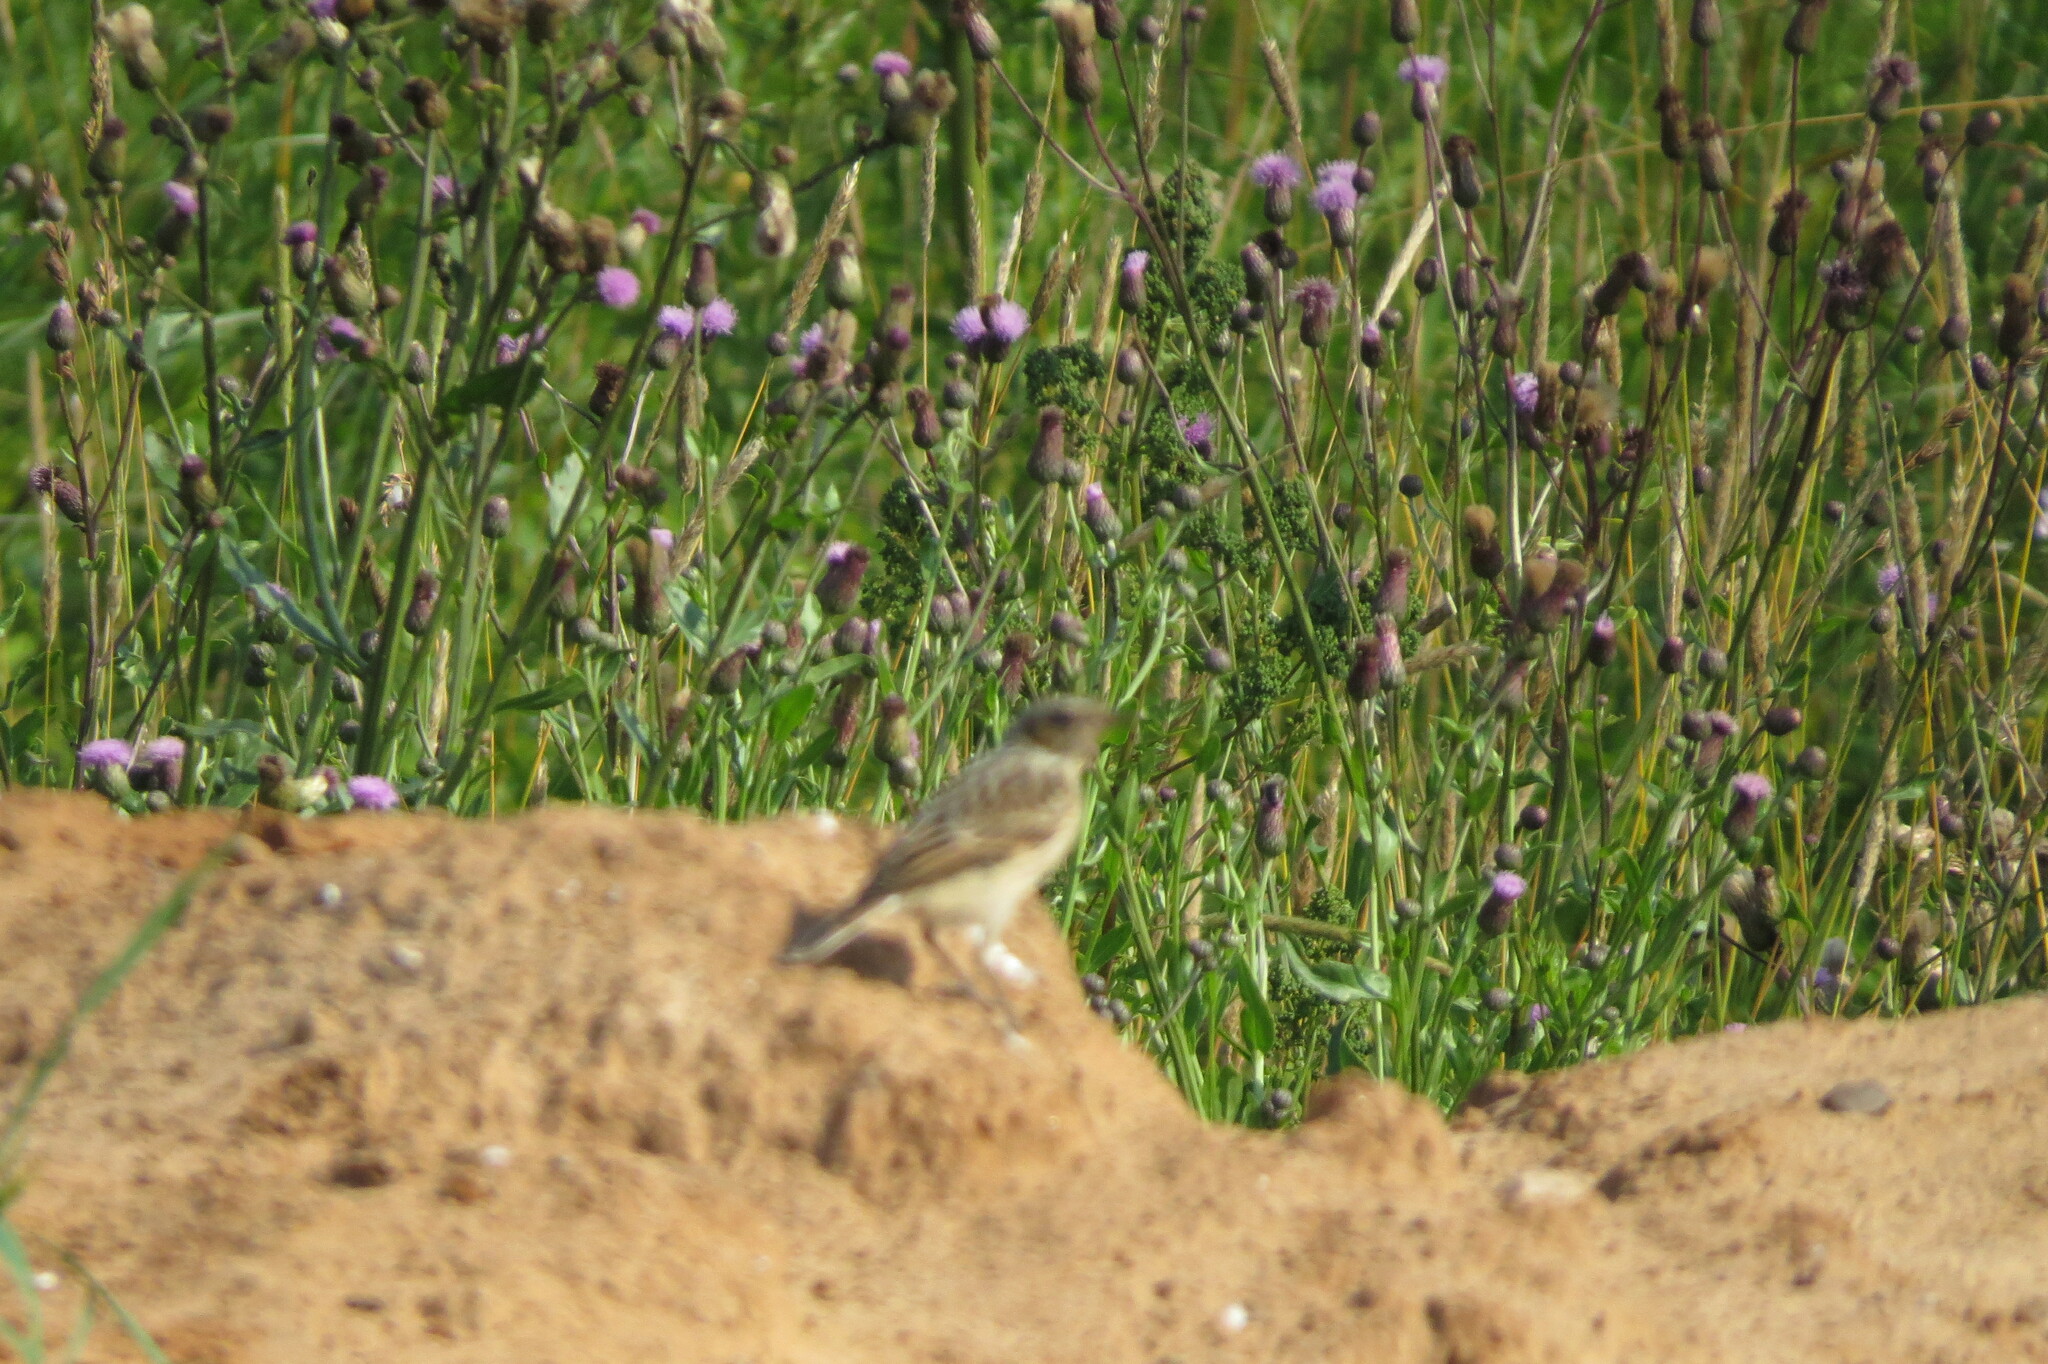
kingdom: Animalia
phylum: Chordata
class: Aves
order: Passeriformes
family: Muscicapidae
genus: Saxicola
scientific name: Saxicola rubetra
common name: Whinchat
